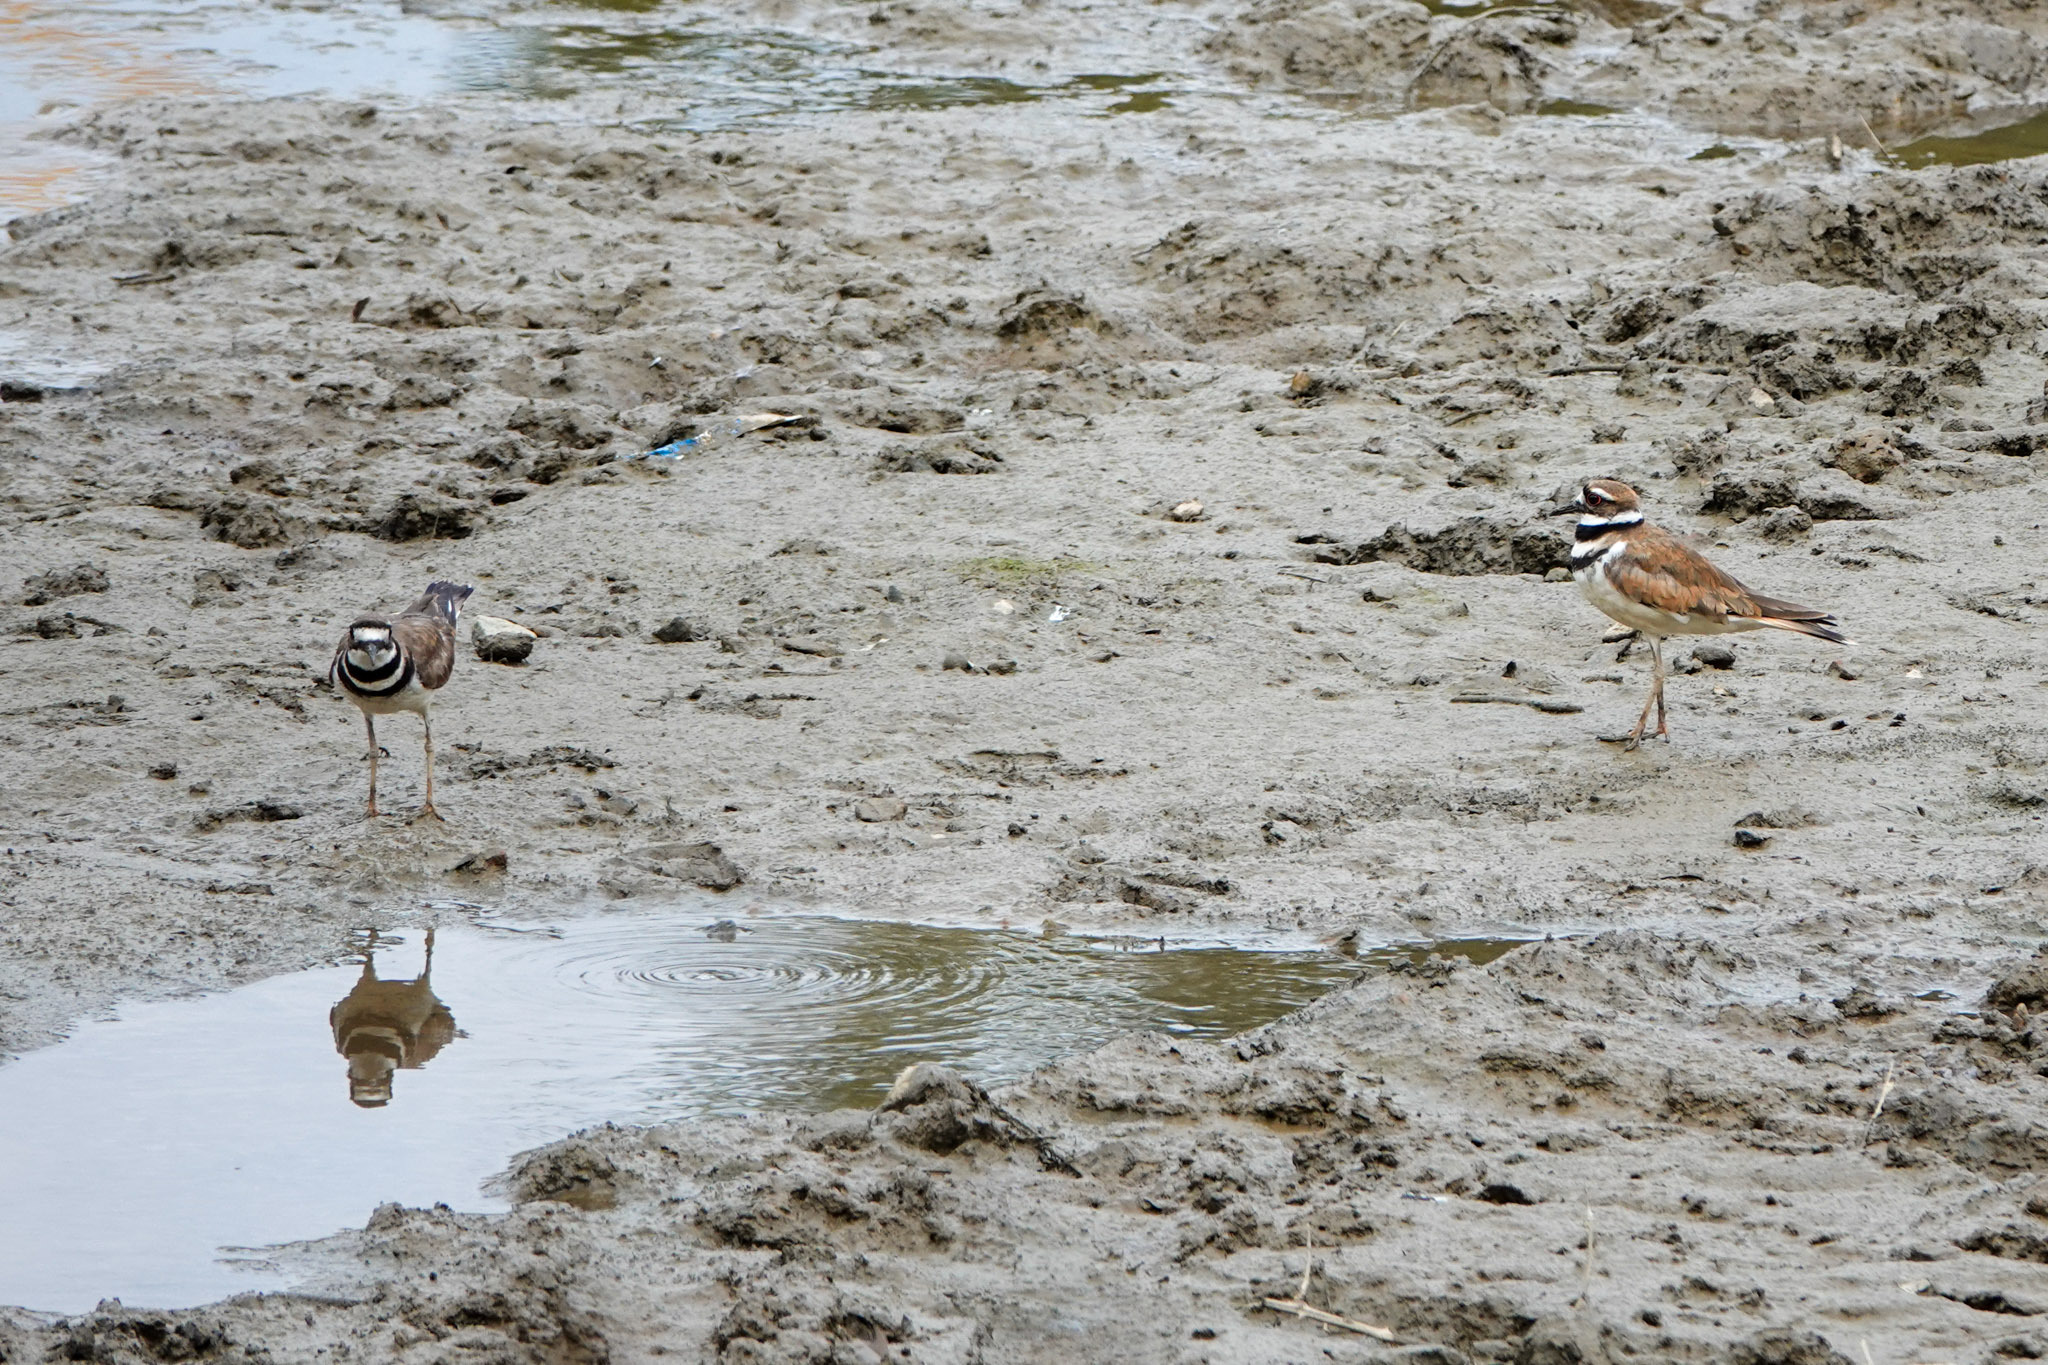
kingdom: Animalia
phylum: Chordata
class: Aves
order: Charadriiformes
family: Charadriidae
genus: Charadrius
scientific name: Charadrius vociferus
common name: Killdeer
